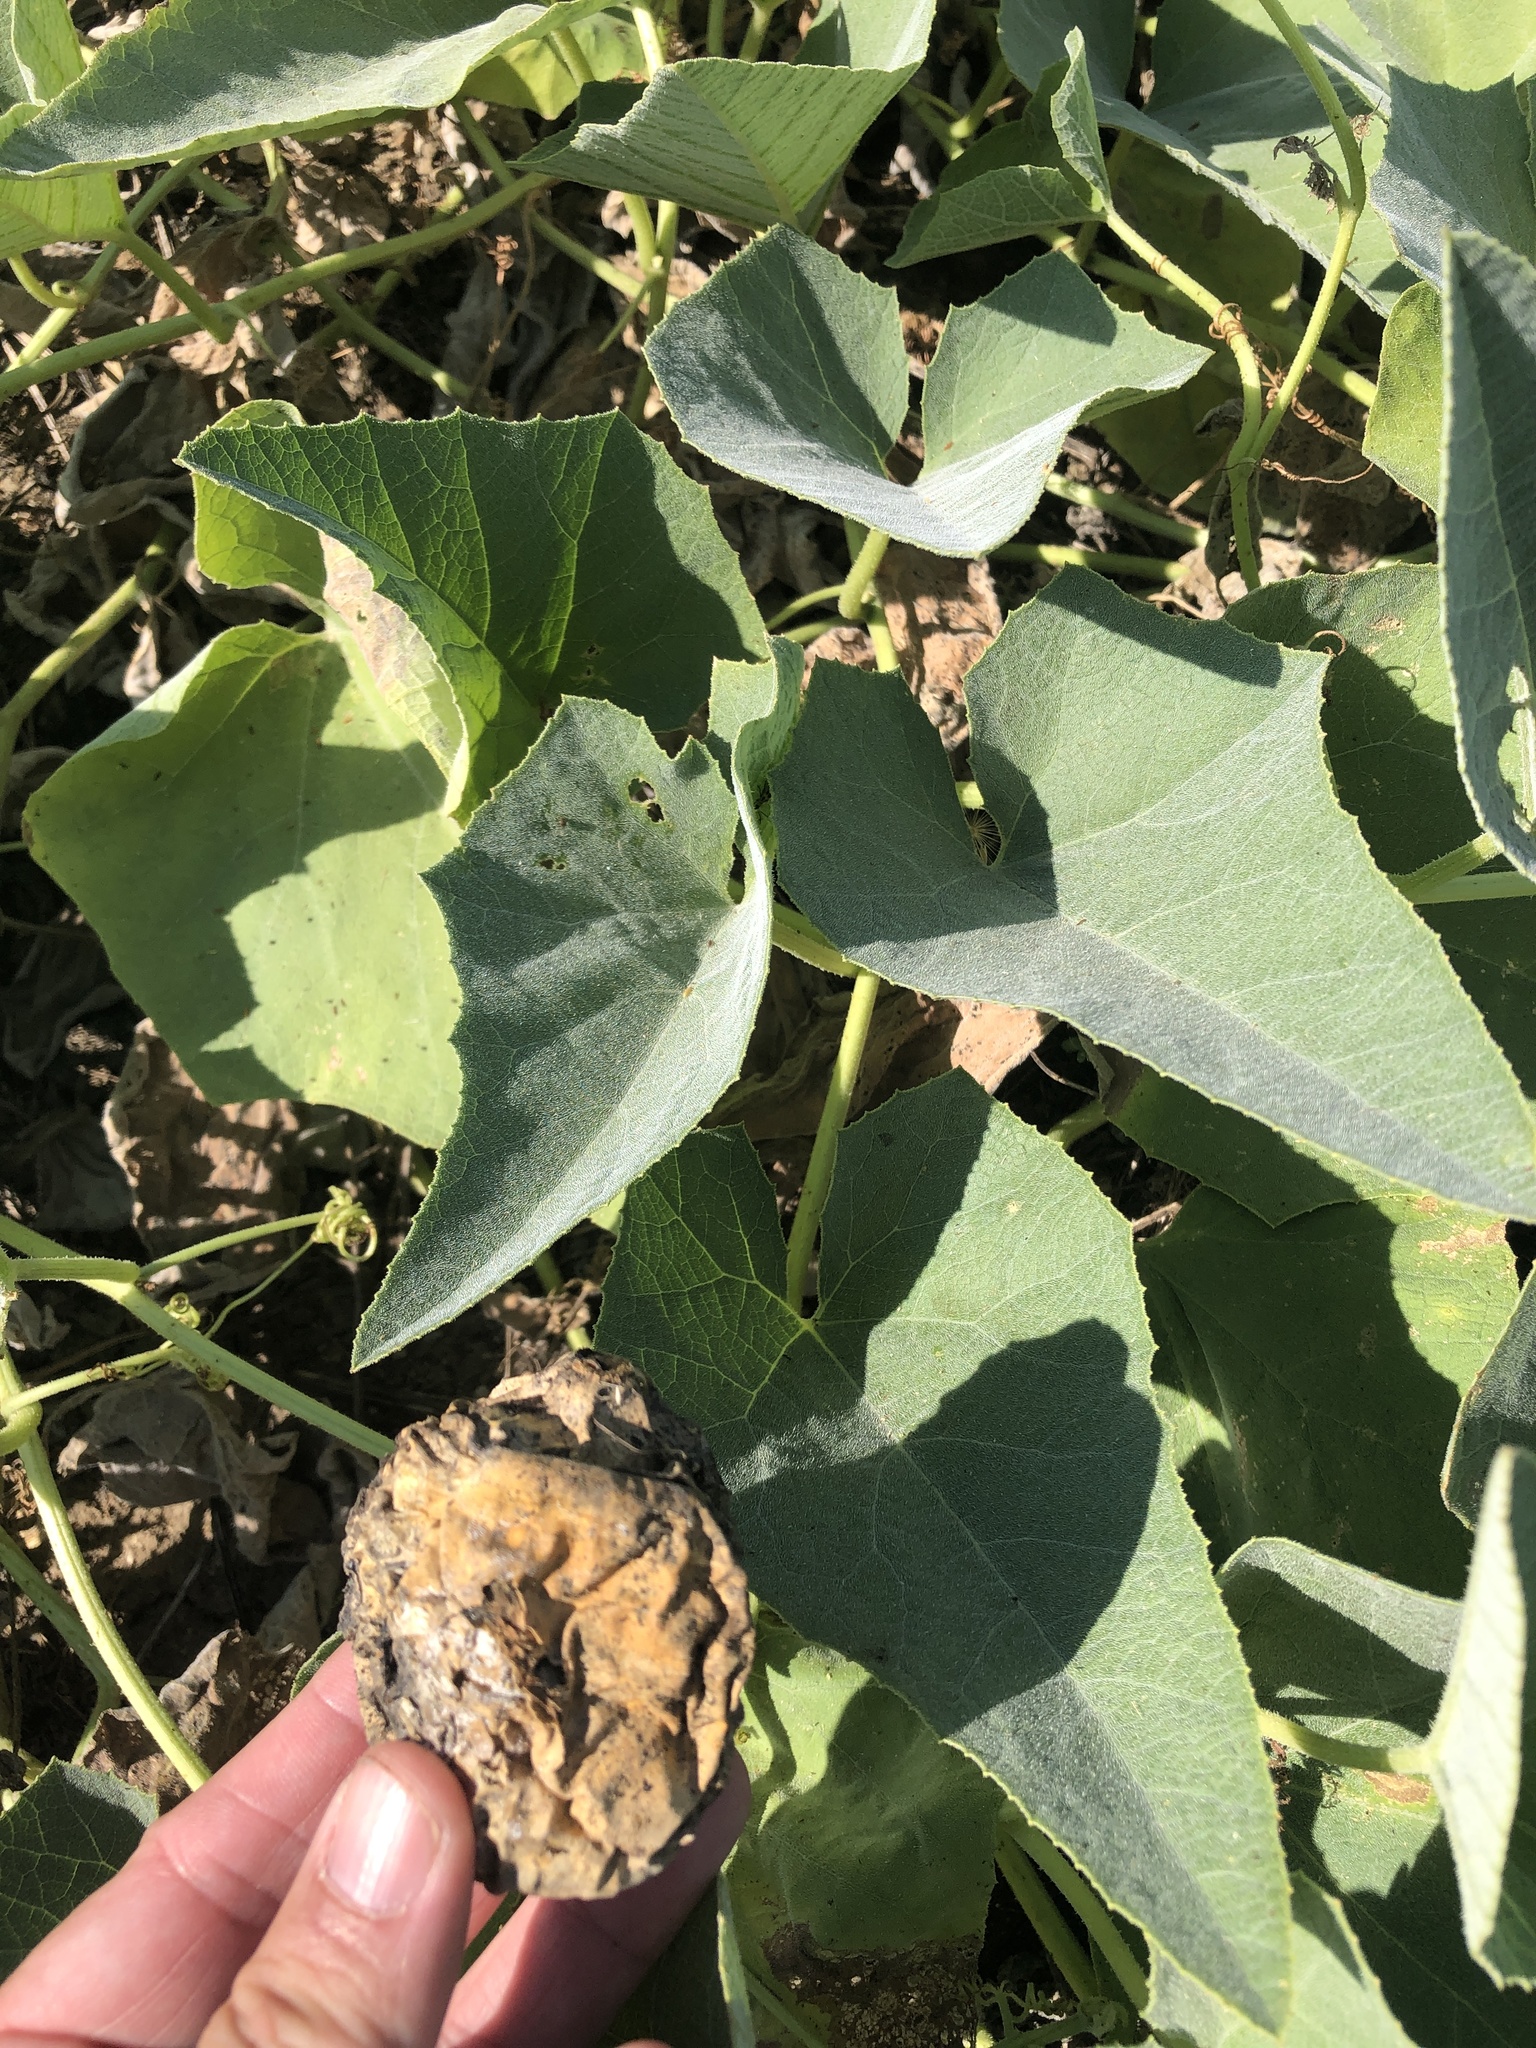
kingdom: Plantae
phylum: Tracheophyta
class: Magnoliopsida
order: Cucurbitales
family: Cucurbitaceae
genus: Cucurbita
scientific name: Cucurbita foetidissima
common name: Buffalo gourd
